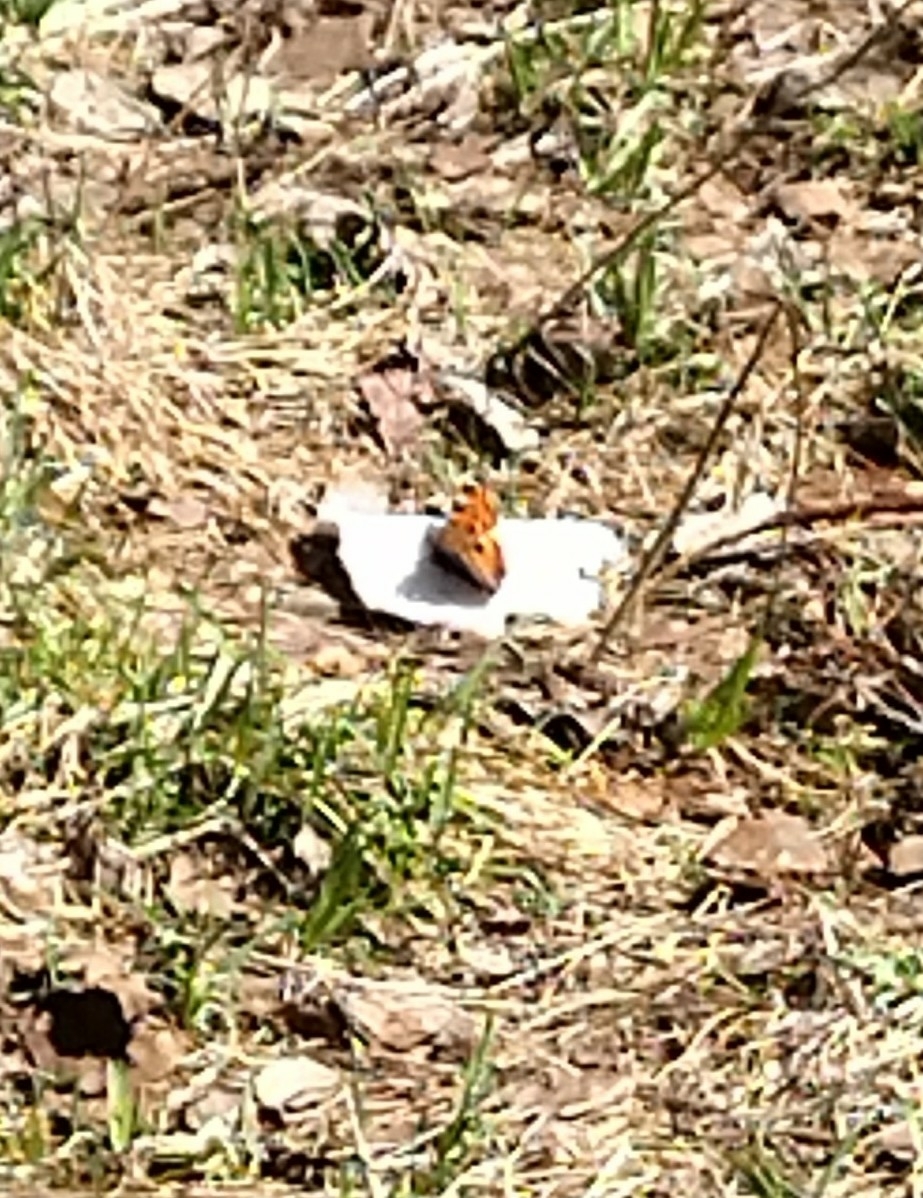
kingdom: Animalia
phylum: Arthropoda
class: Insecta
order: Lepidoptera
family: Nymphalidae
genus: Nymphalis
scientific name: Nymphalis xanthomelas
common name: Scarce tortoiseshell
